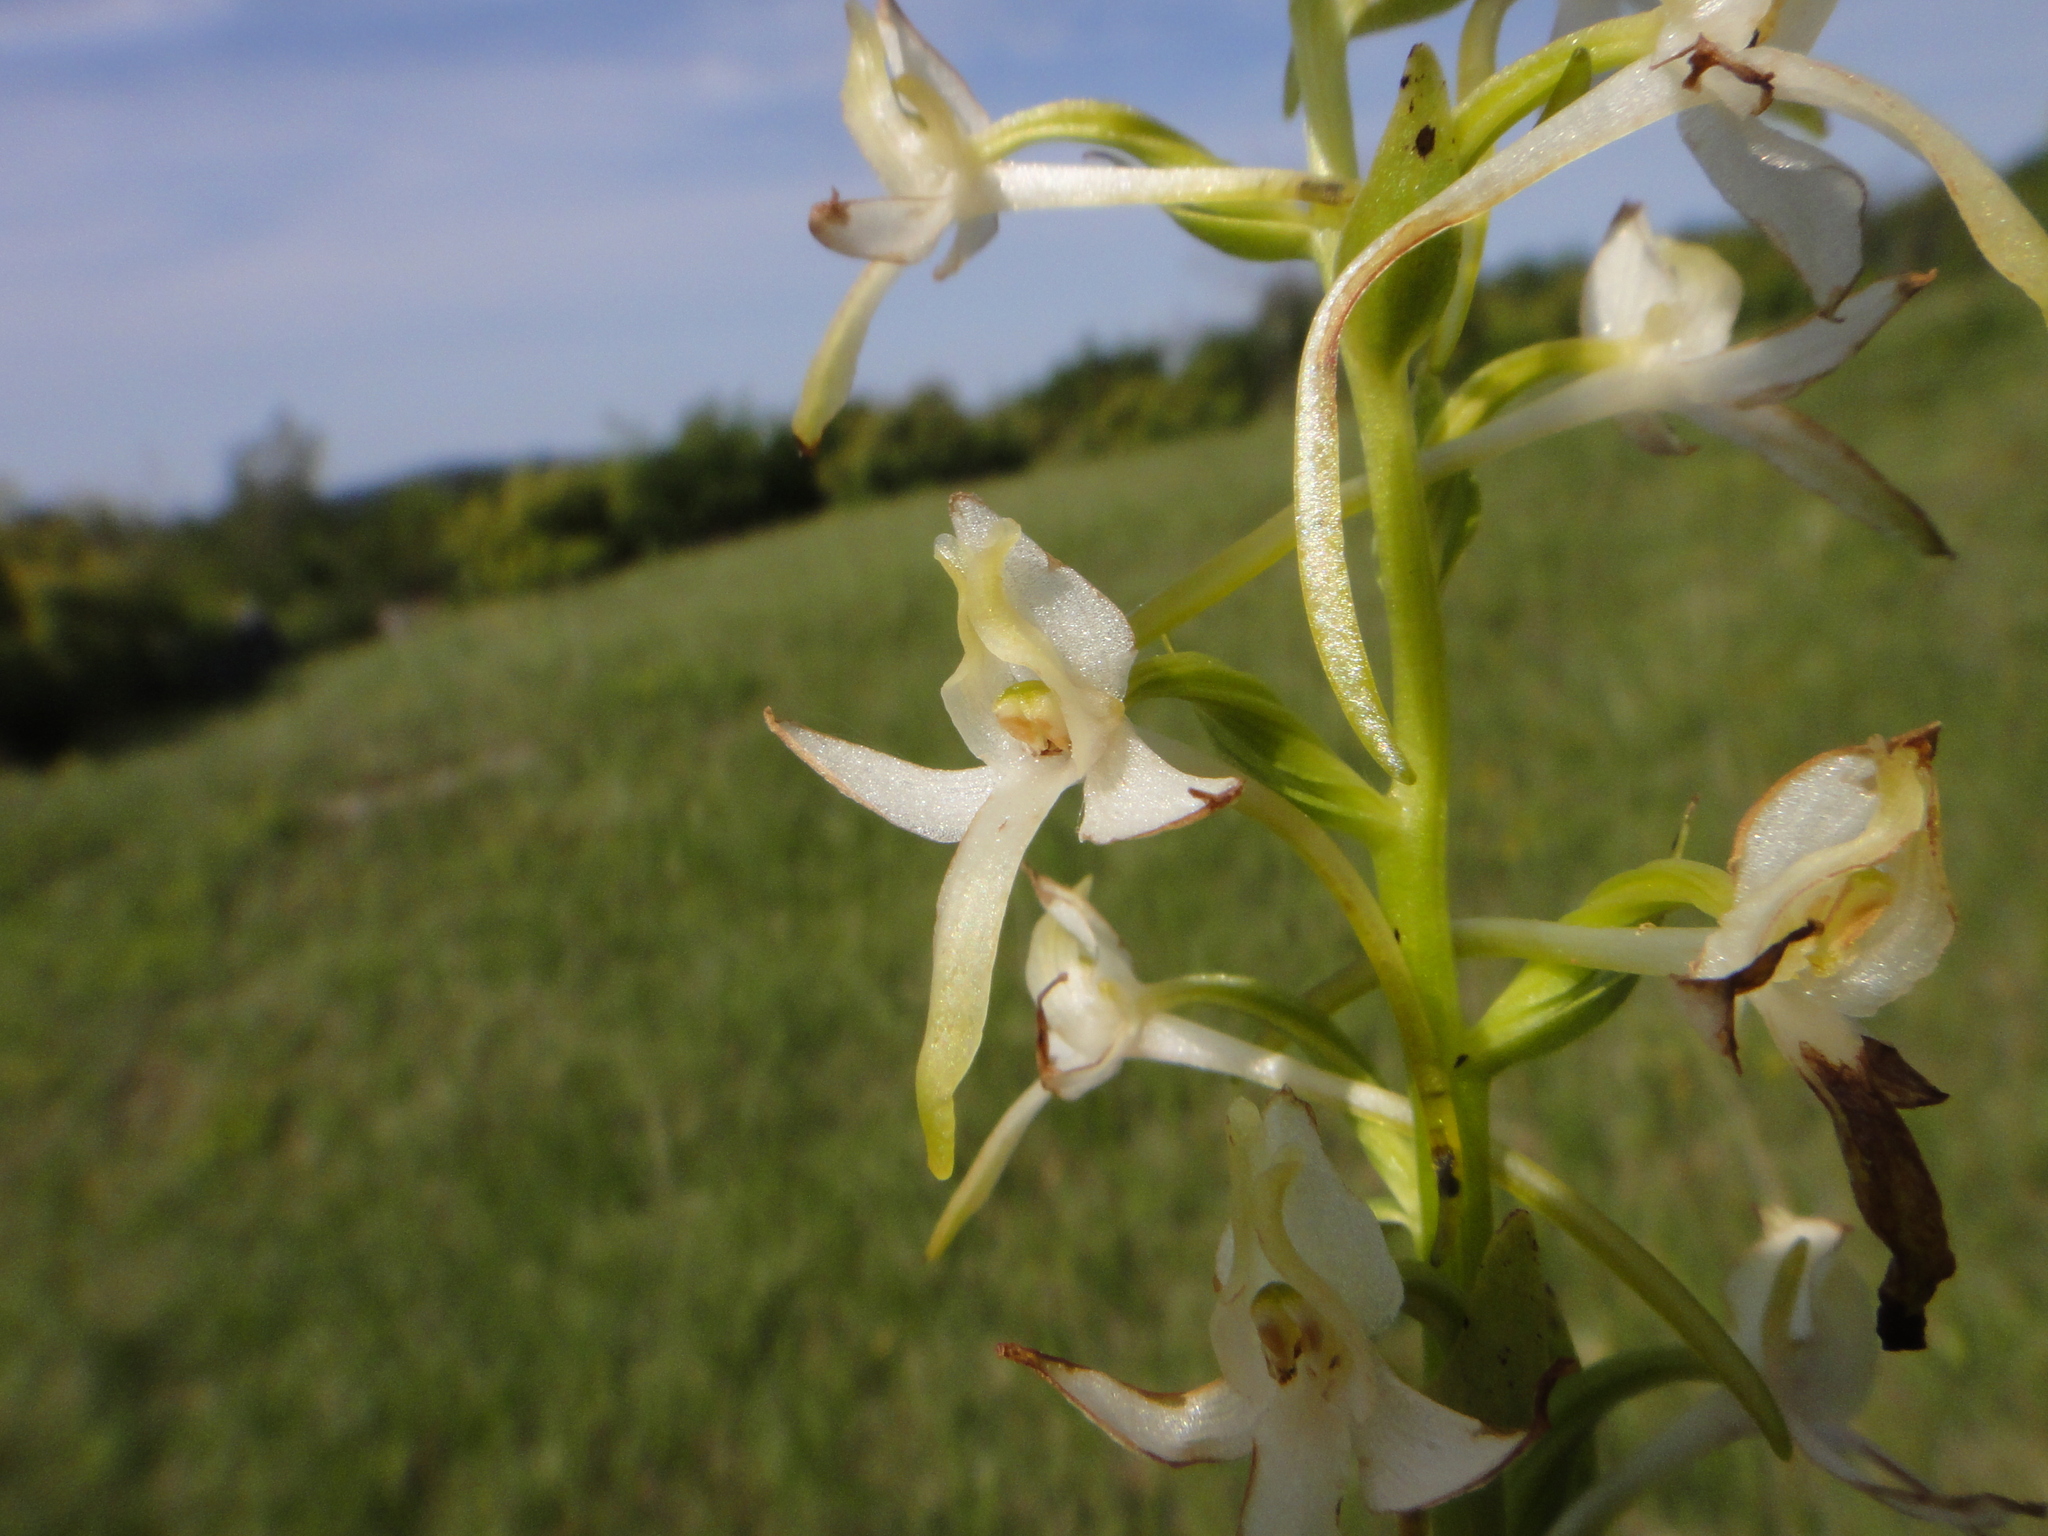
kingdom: Plantae
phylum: Tracheophyta
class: Liliopsida
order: Asparagales
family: Orchidaceae
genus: Platanthera
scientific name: Platanthera bifolia
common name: Lesser butterfly-orchid
